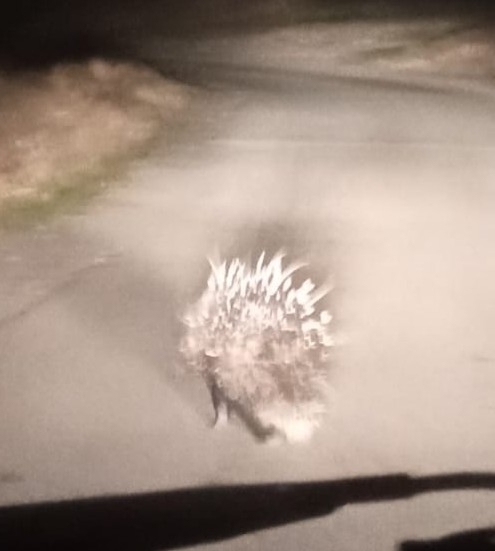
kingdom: Animalia
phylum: Chordata
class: Mammalia
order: Rodentia
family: Hystricidae
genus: Hystrix
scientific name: Hystrix cristata
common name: Crested porcupine
